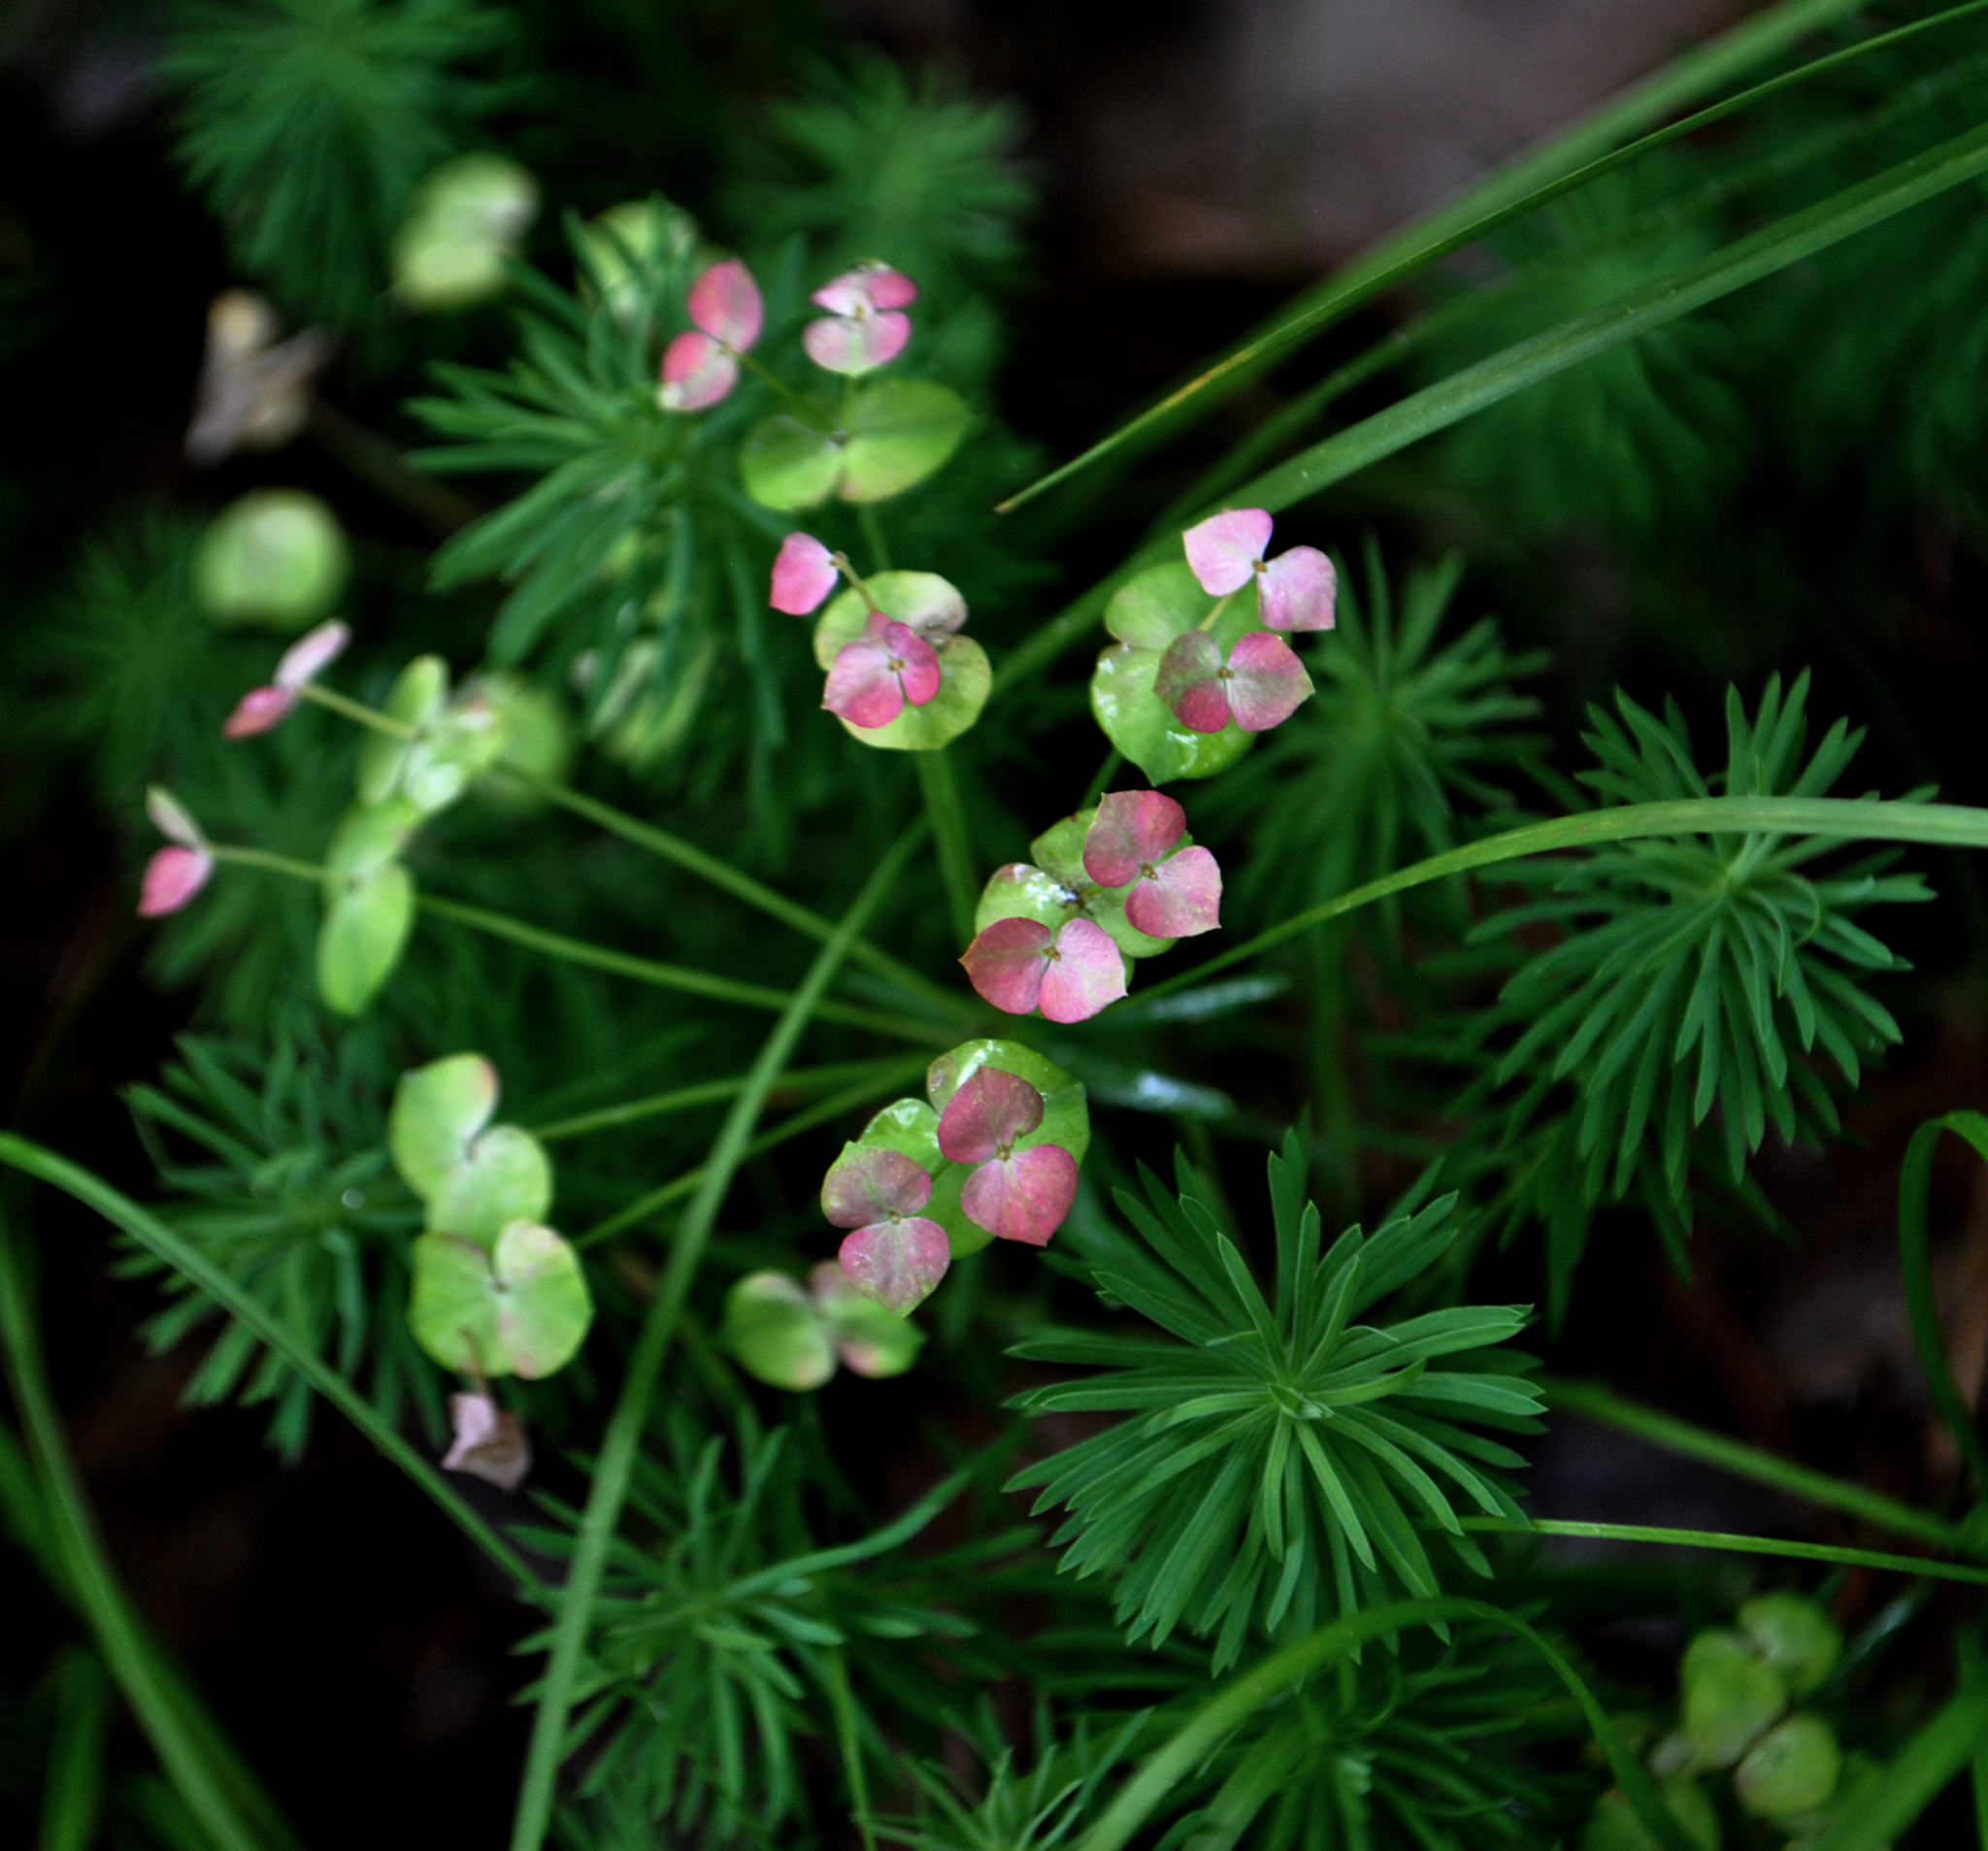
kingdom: Plantae
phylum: Tracheophyta
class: Magnoliopsida
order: Malpighiales
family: Euphorbiaceae
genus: Euphorbia
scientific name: Euphorbia cyparissias
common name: Cypress spurge
